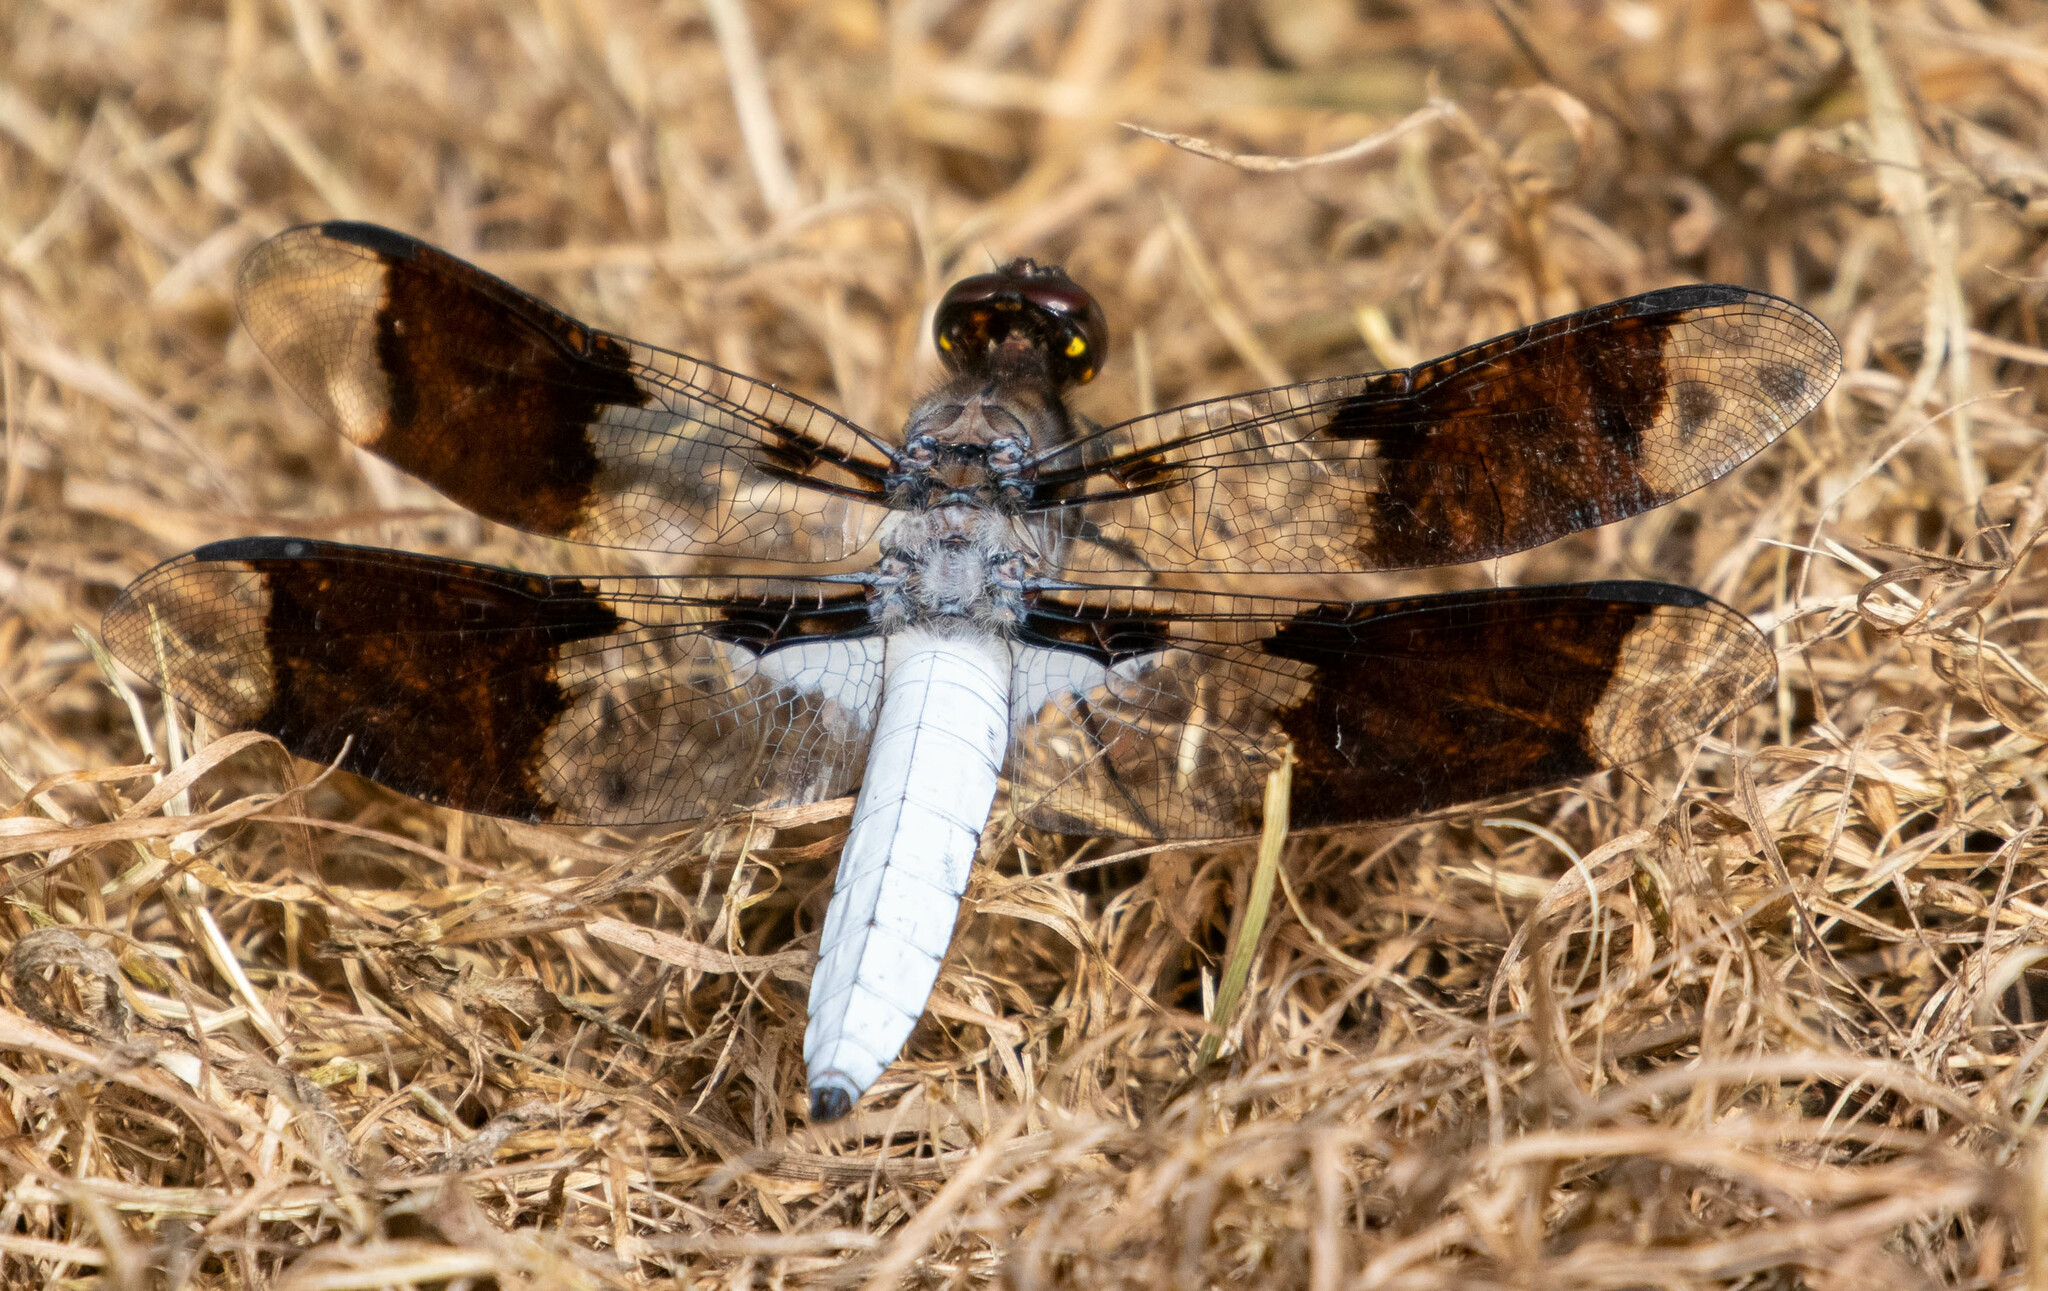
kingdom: Animalia
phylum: Arthropoda
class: Insecta
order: Odonata
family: Libellulidae
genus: Plathemis
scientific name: Plathemis lydia
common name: Common whitetail
